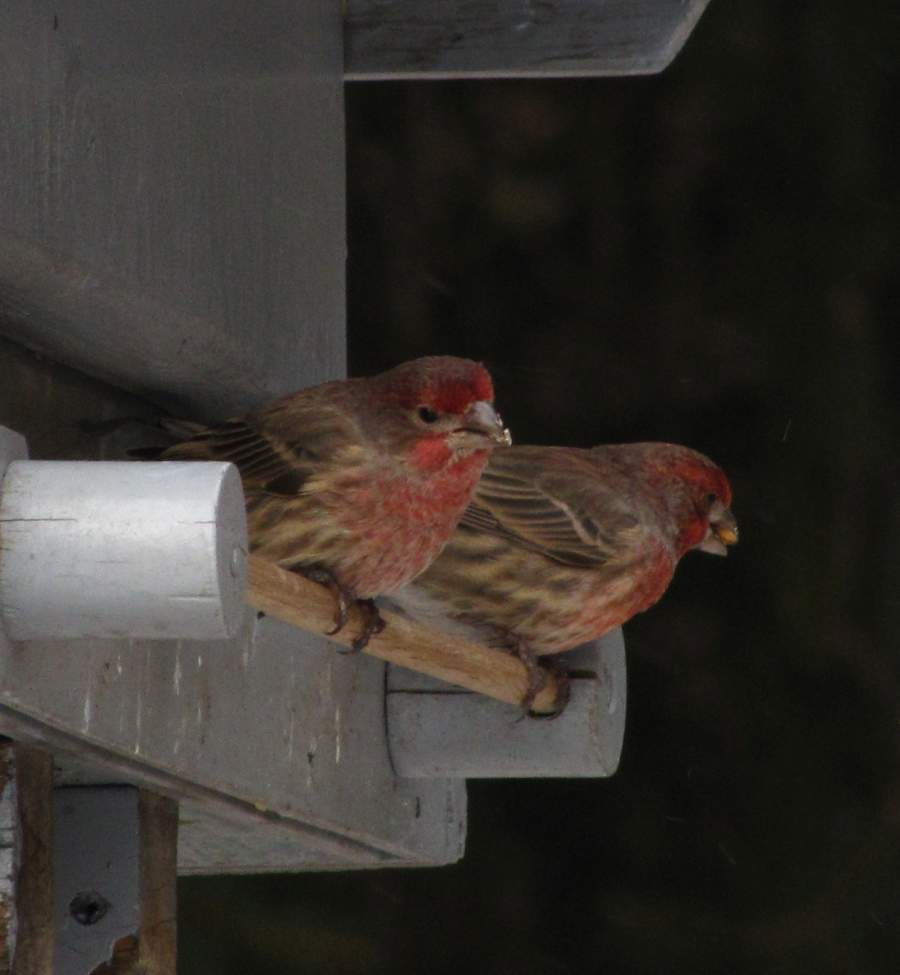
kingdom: Animalia
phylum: Chordata
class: Aves
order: Passeriformes
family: Fringillidae
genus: Haemorhous
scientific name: Haemorhous mexicanus
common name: House finch
